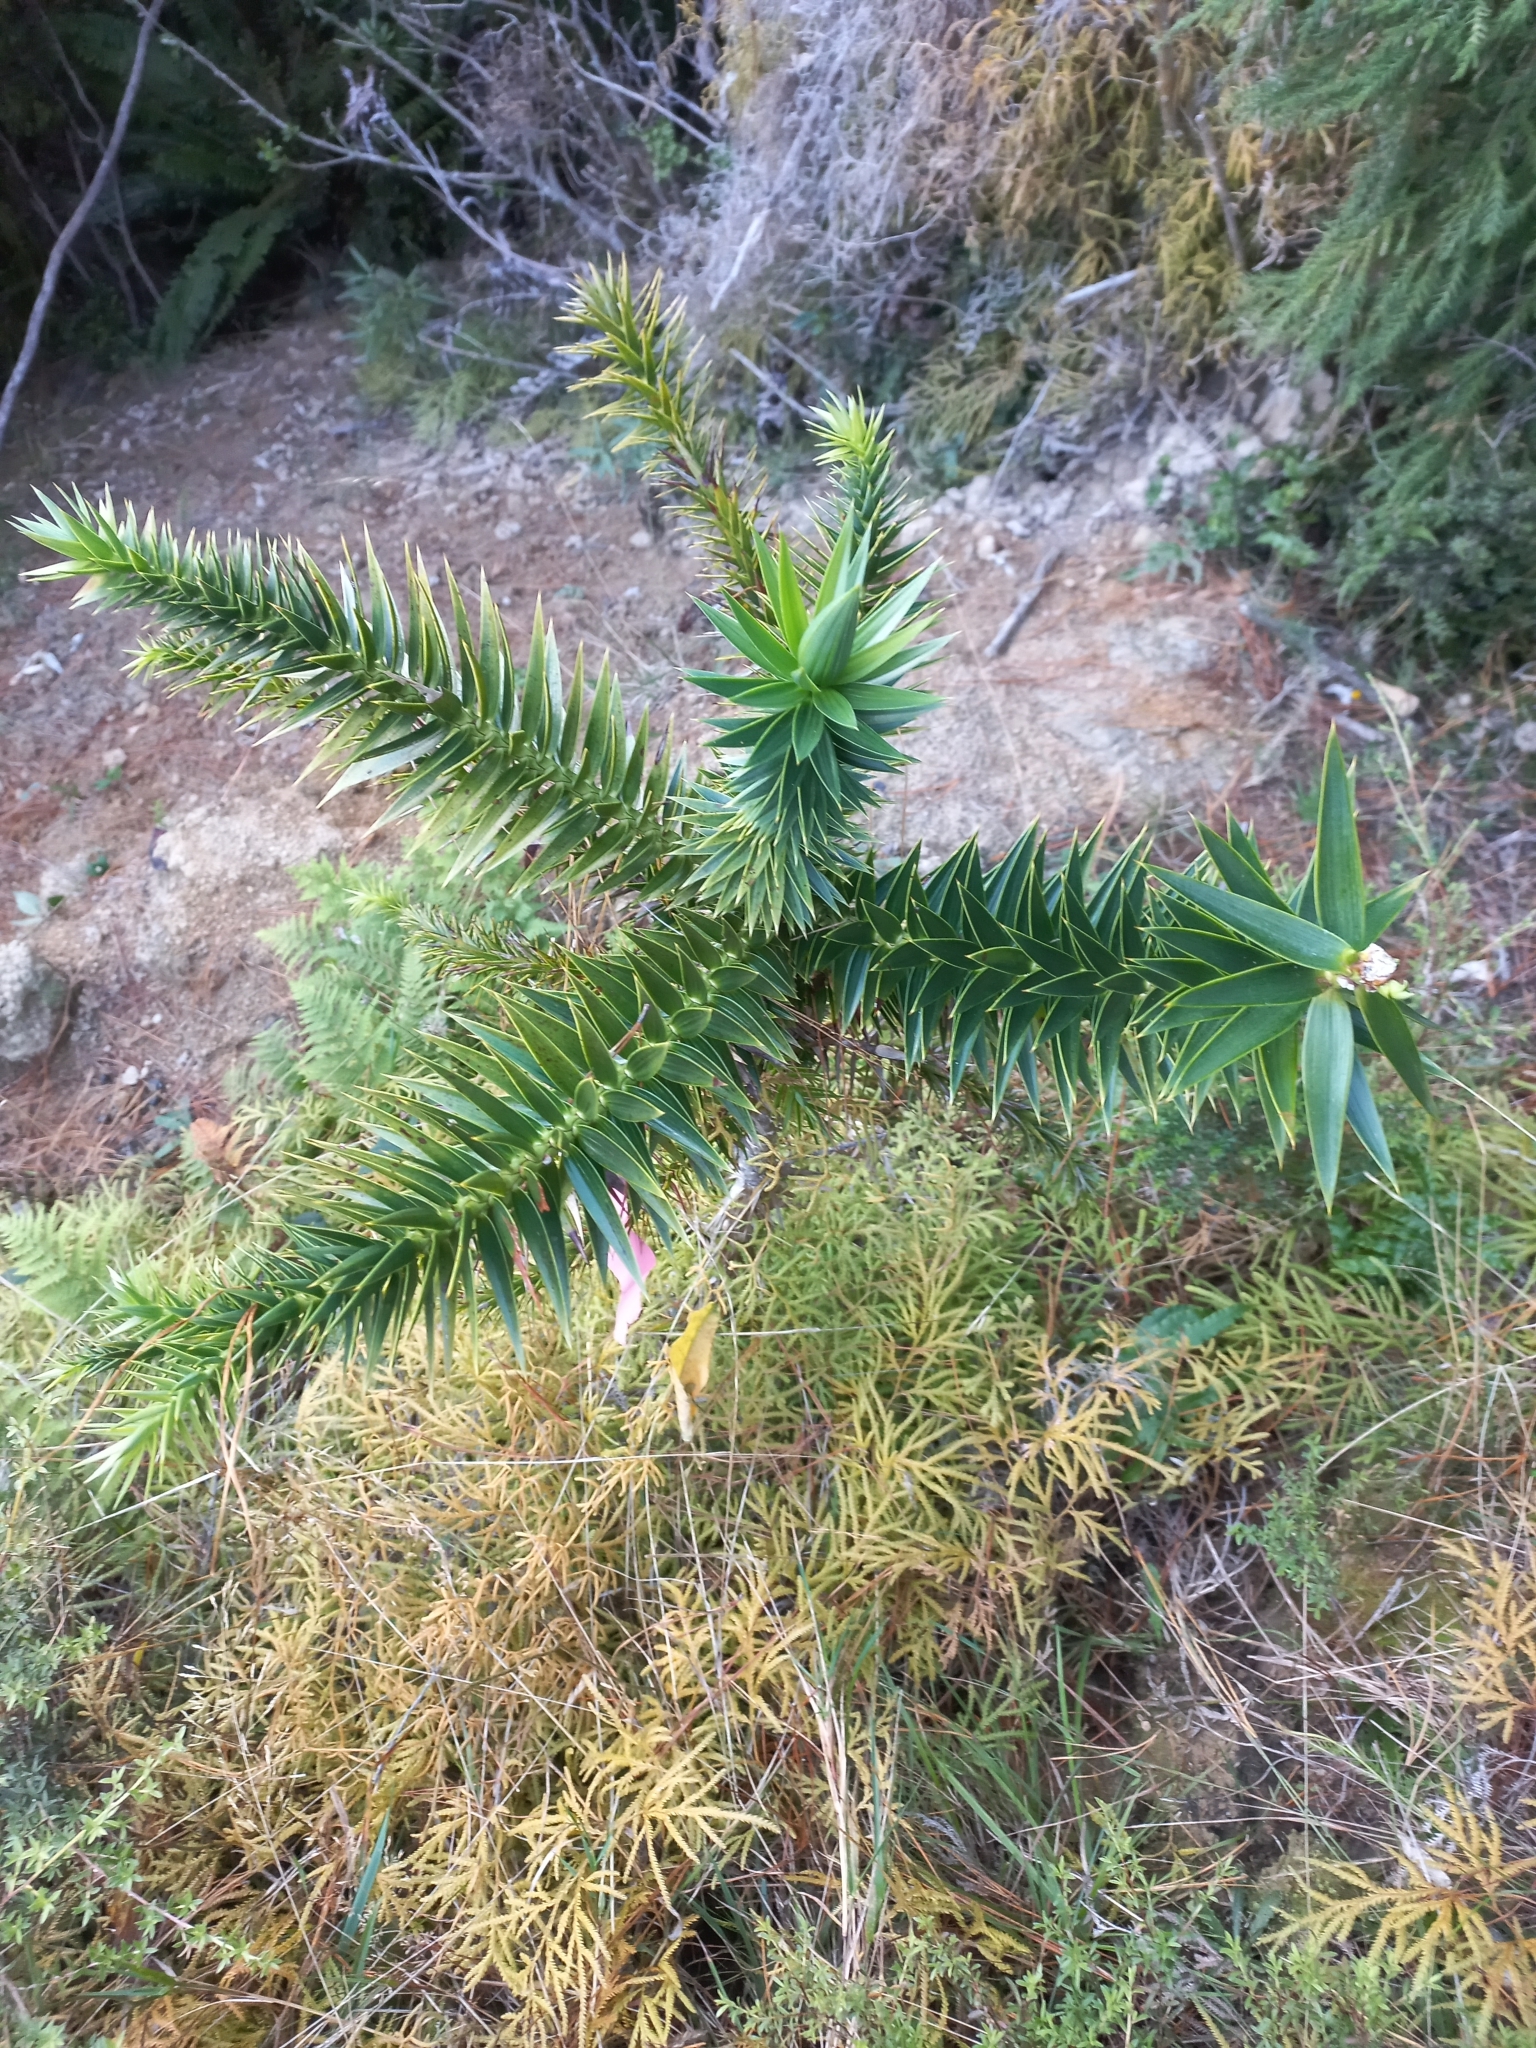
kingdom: Plantae
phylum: Tracheophyta
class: Pinopsida
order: Pinales
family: Araucariaceae
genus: Araucaria
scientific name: Araucaria araucana
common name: Monkey-puzzle
